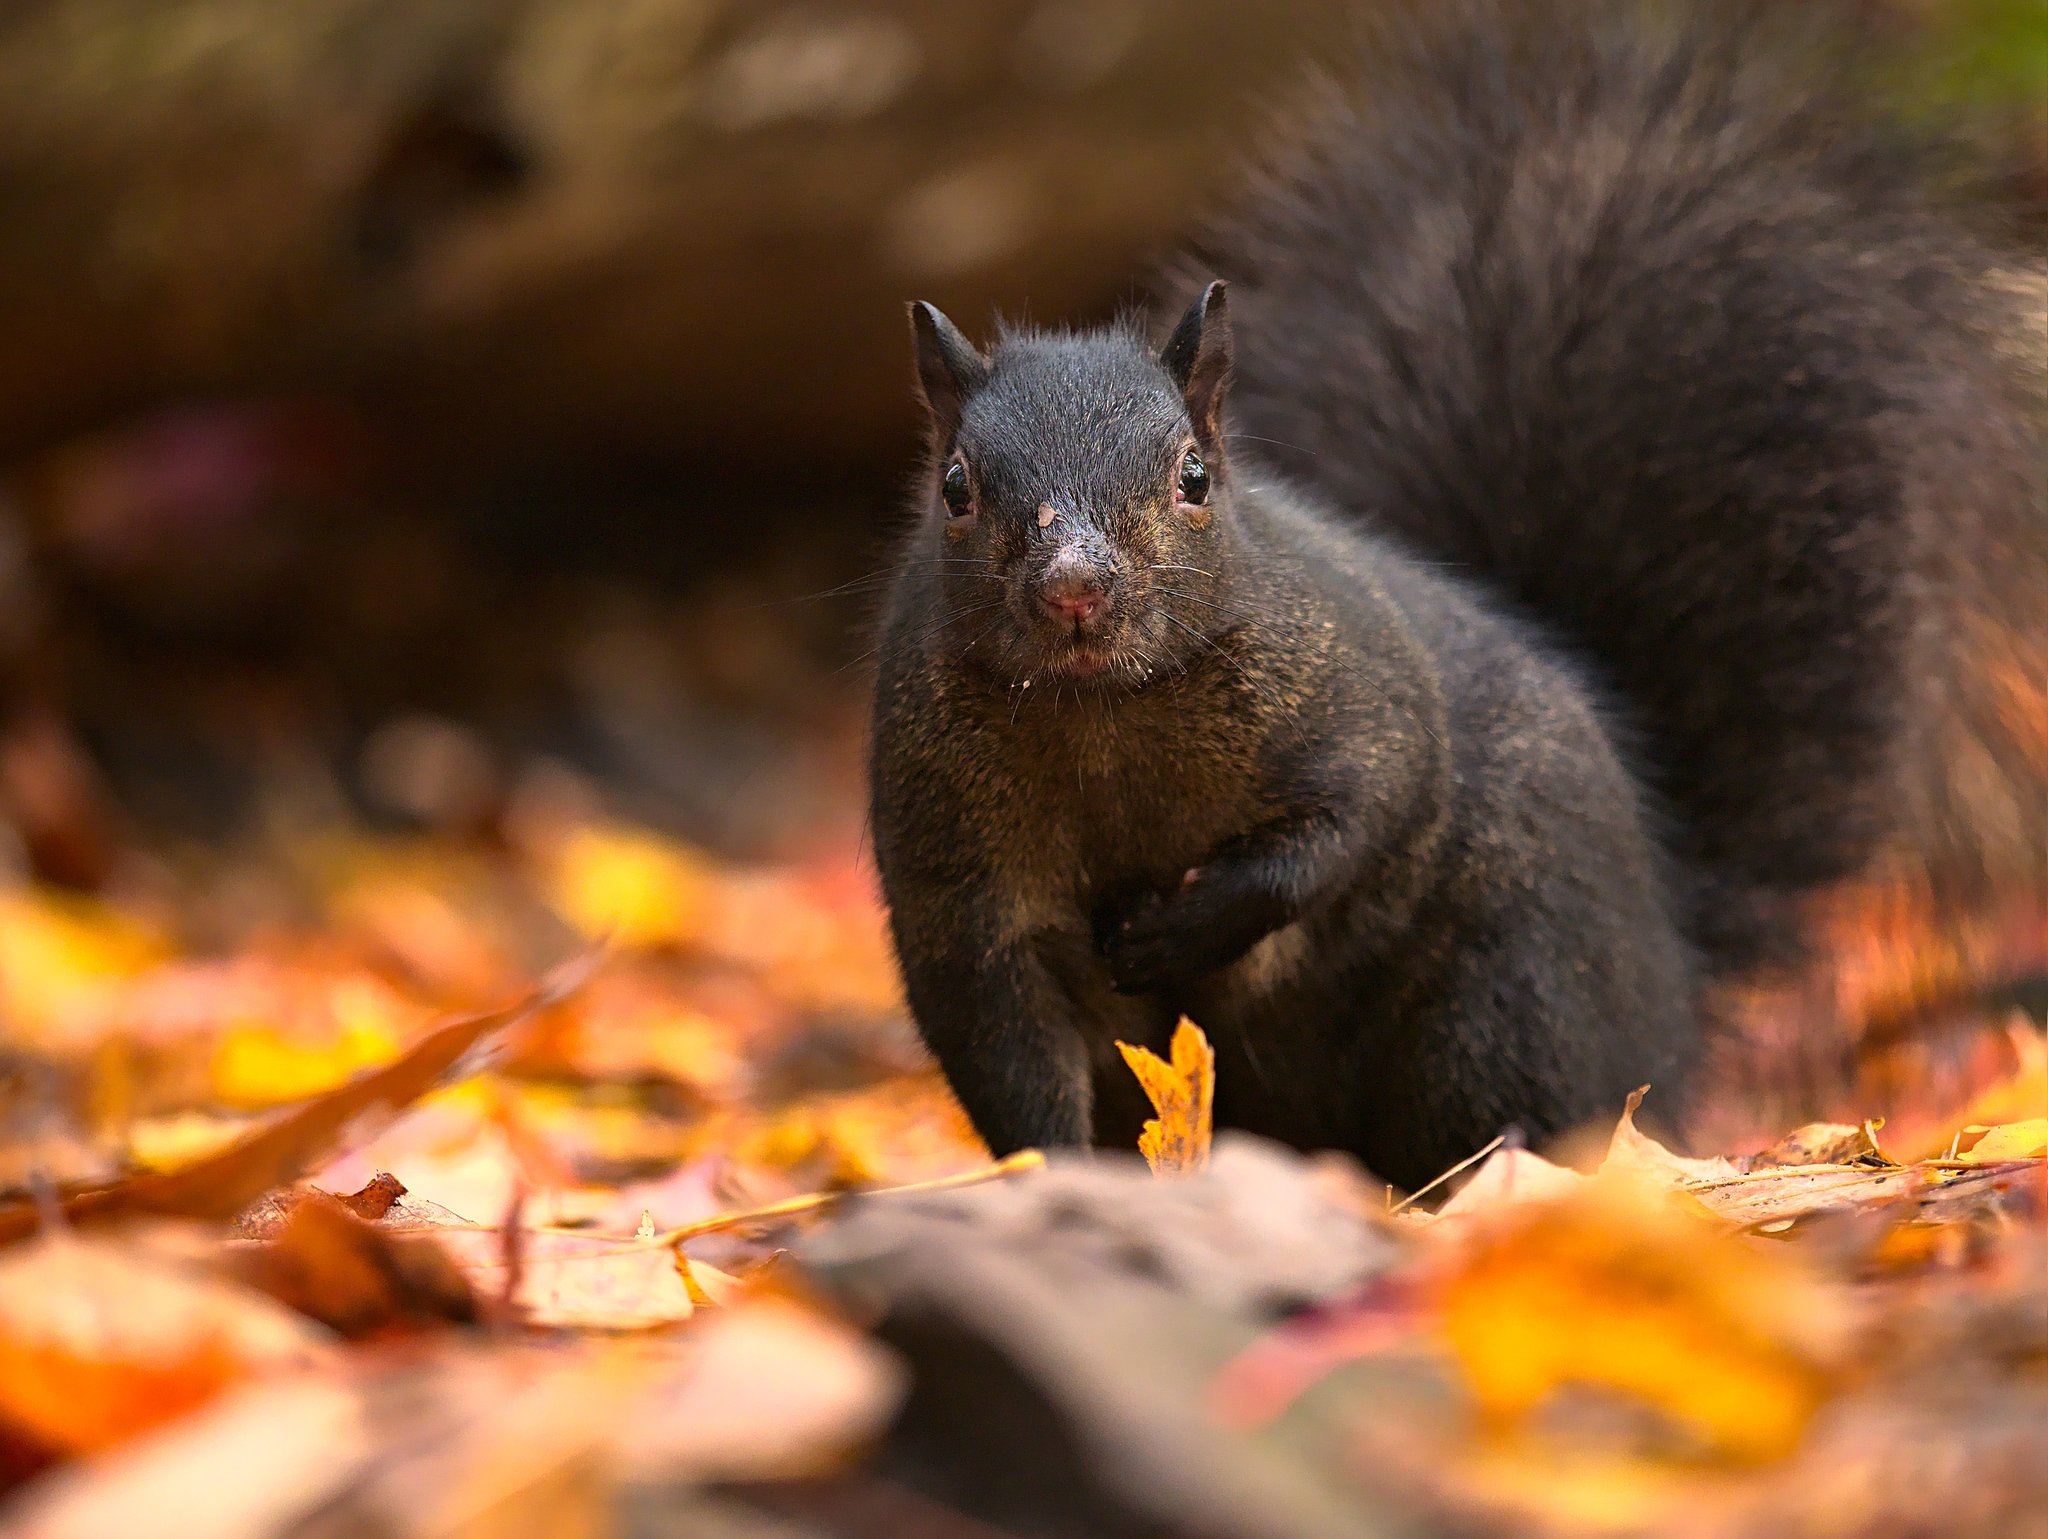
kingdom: Animalia
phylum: Chordata
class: Mammalia
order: Rodentia
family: Sciuridae
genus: Sciurus
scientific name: Sciurus carolinensis
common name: Eastern gray squirrel
